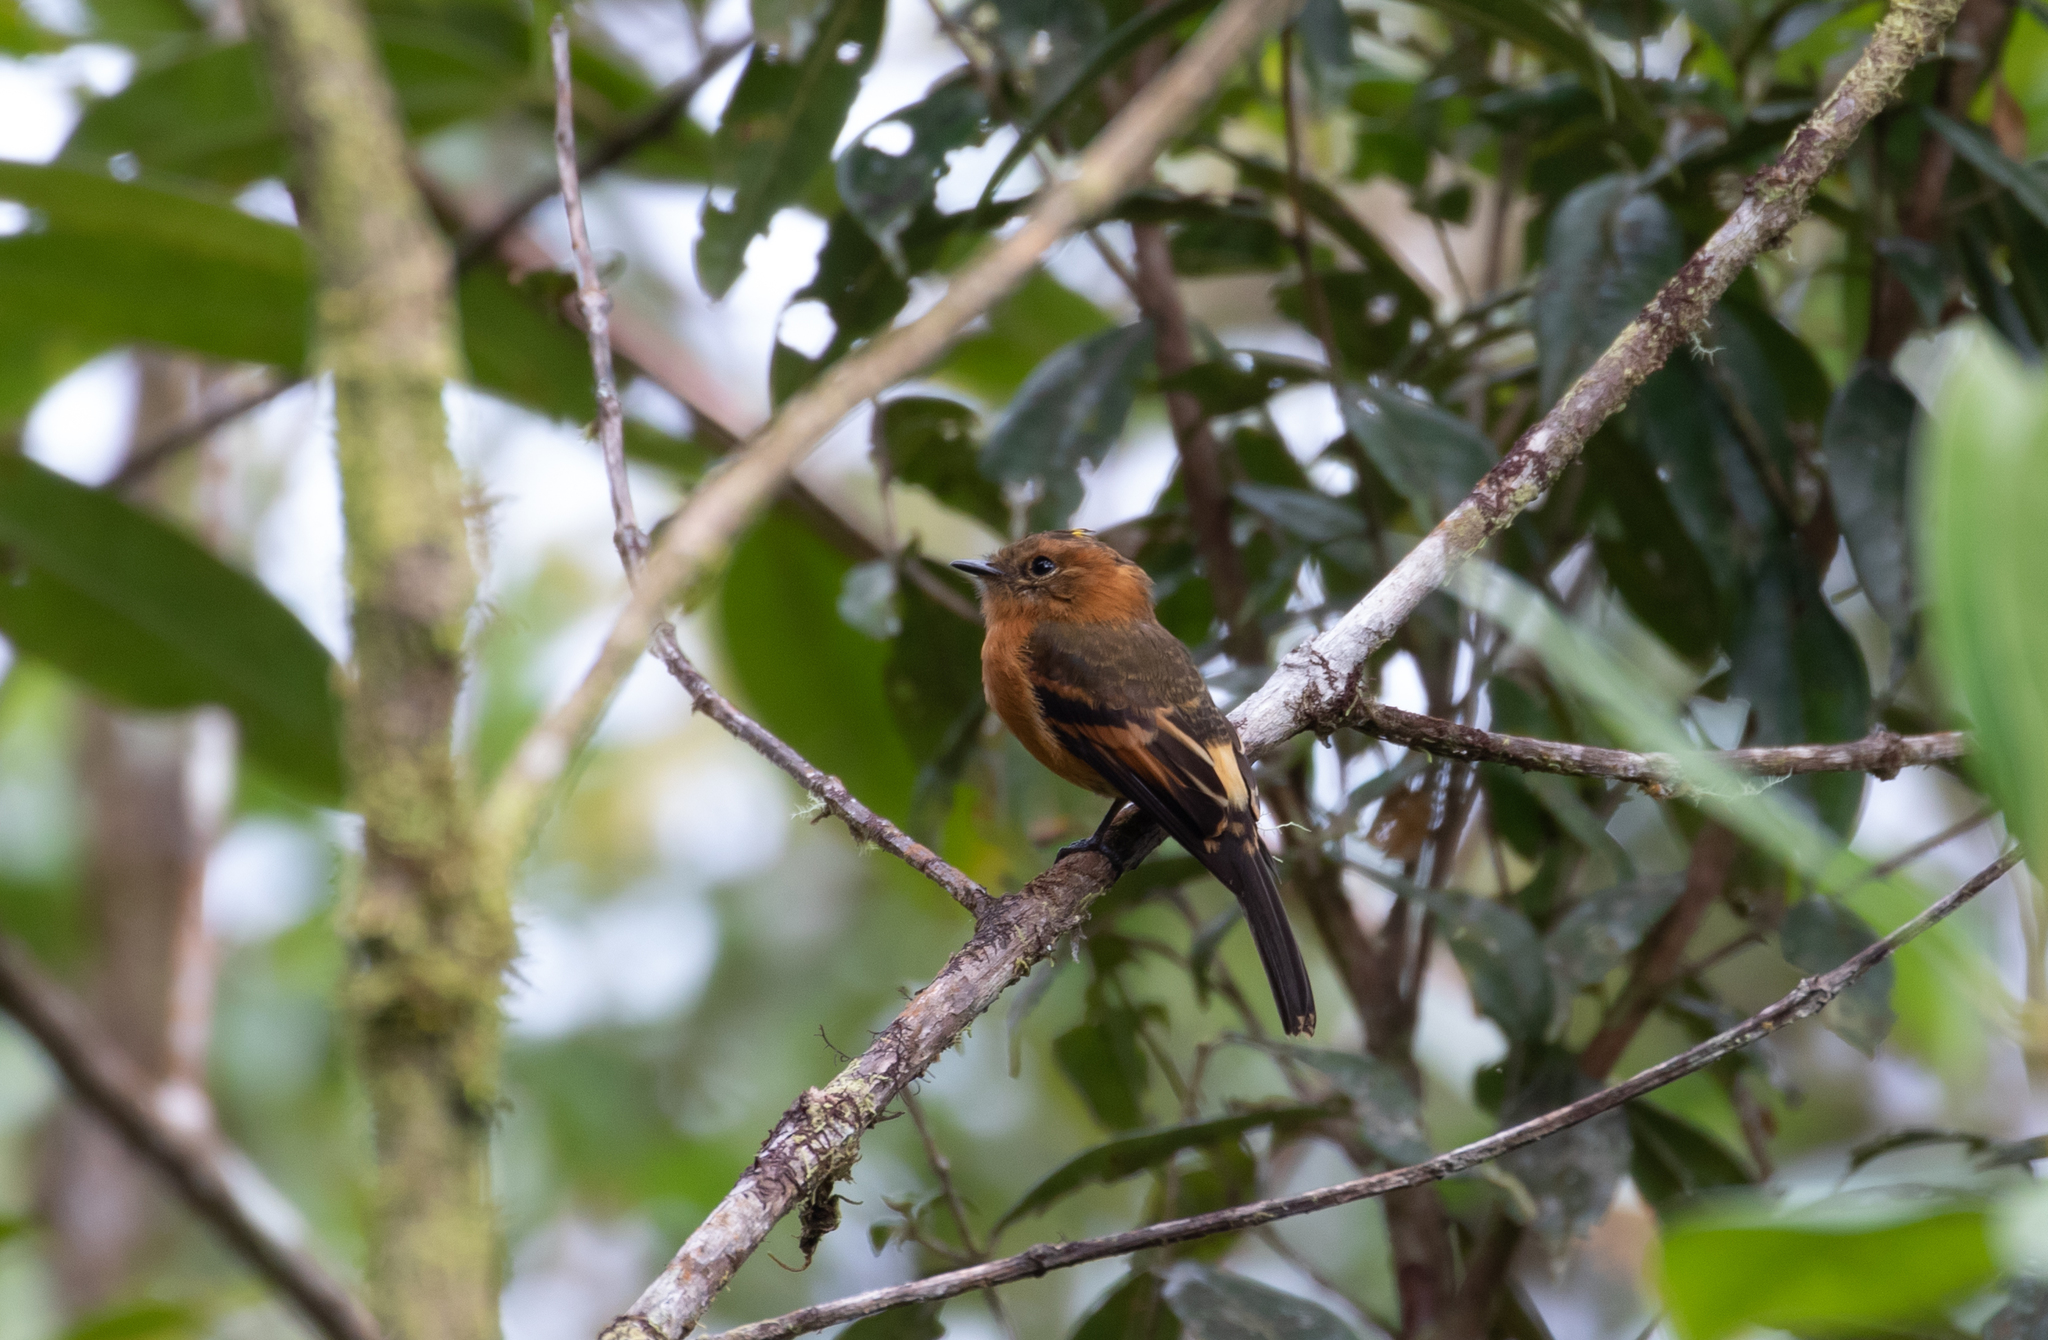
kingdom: Animalia
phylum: Chordata
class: Aves
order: Passeriformes
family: Tyrannidae
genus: Pyrrhomyias
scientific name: Pyrrhomyias cinnamomeus
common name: Cinnamon flycatcher
